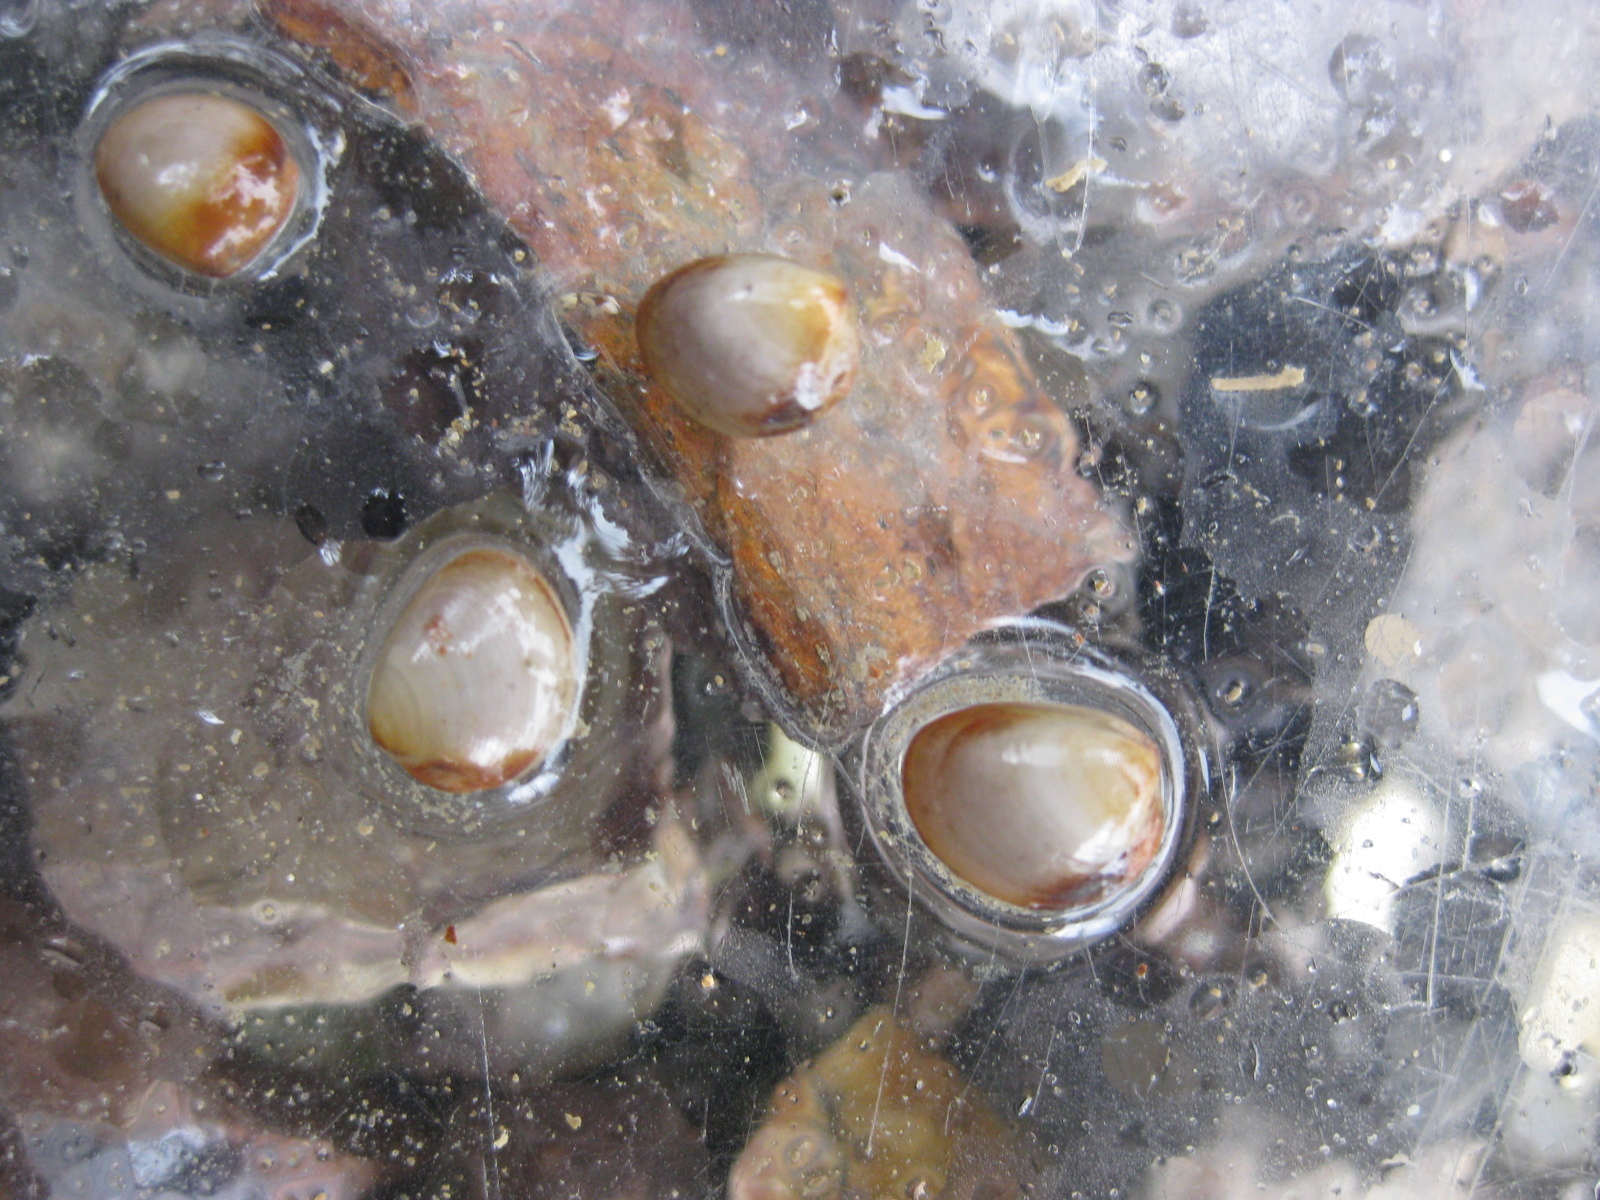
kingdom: Animalia
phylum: Mollusca
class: Bivalvia
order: Nuculida
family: Nuculidae
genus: Linucula
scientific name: Linucula hartvigiana
